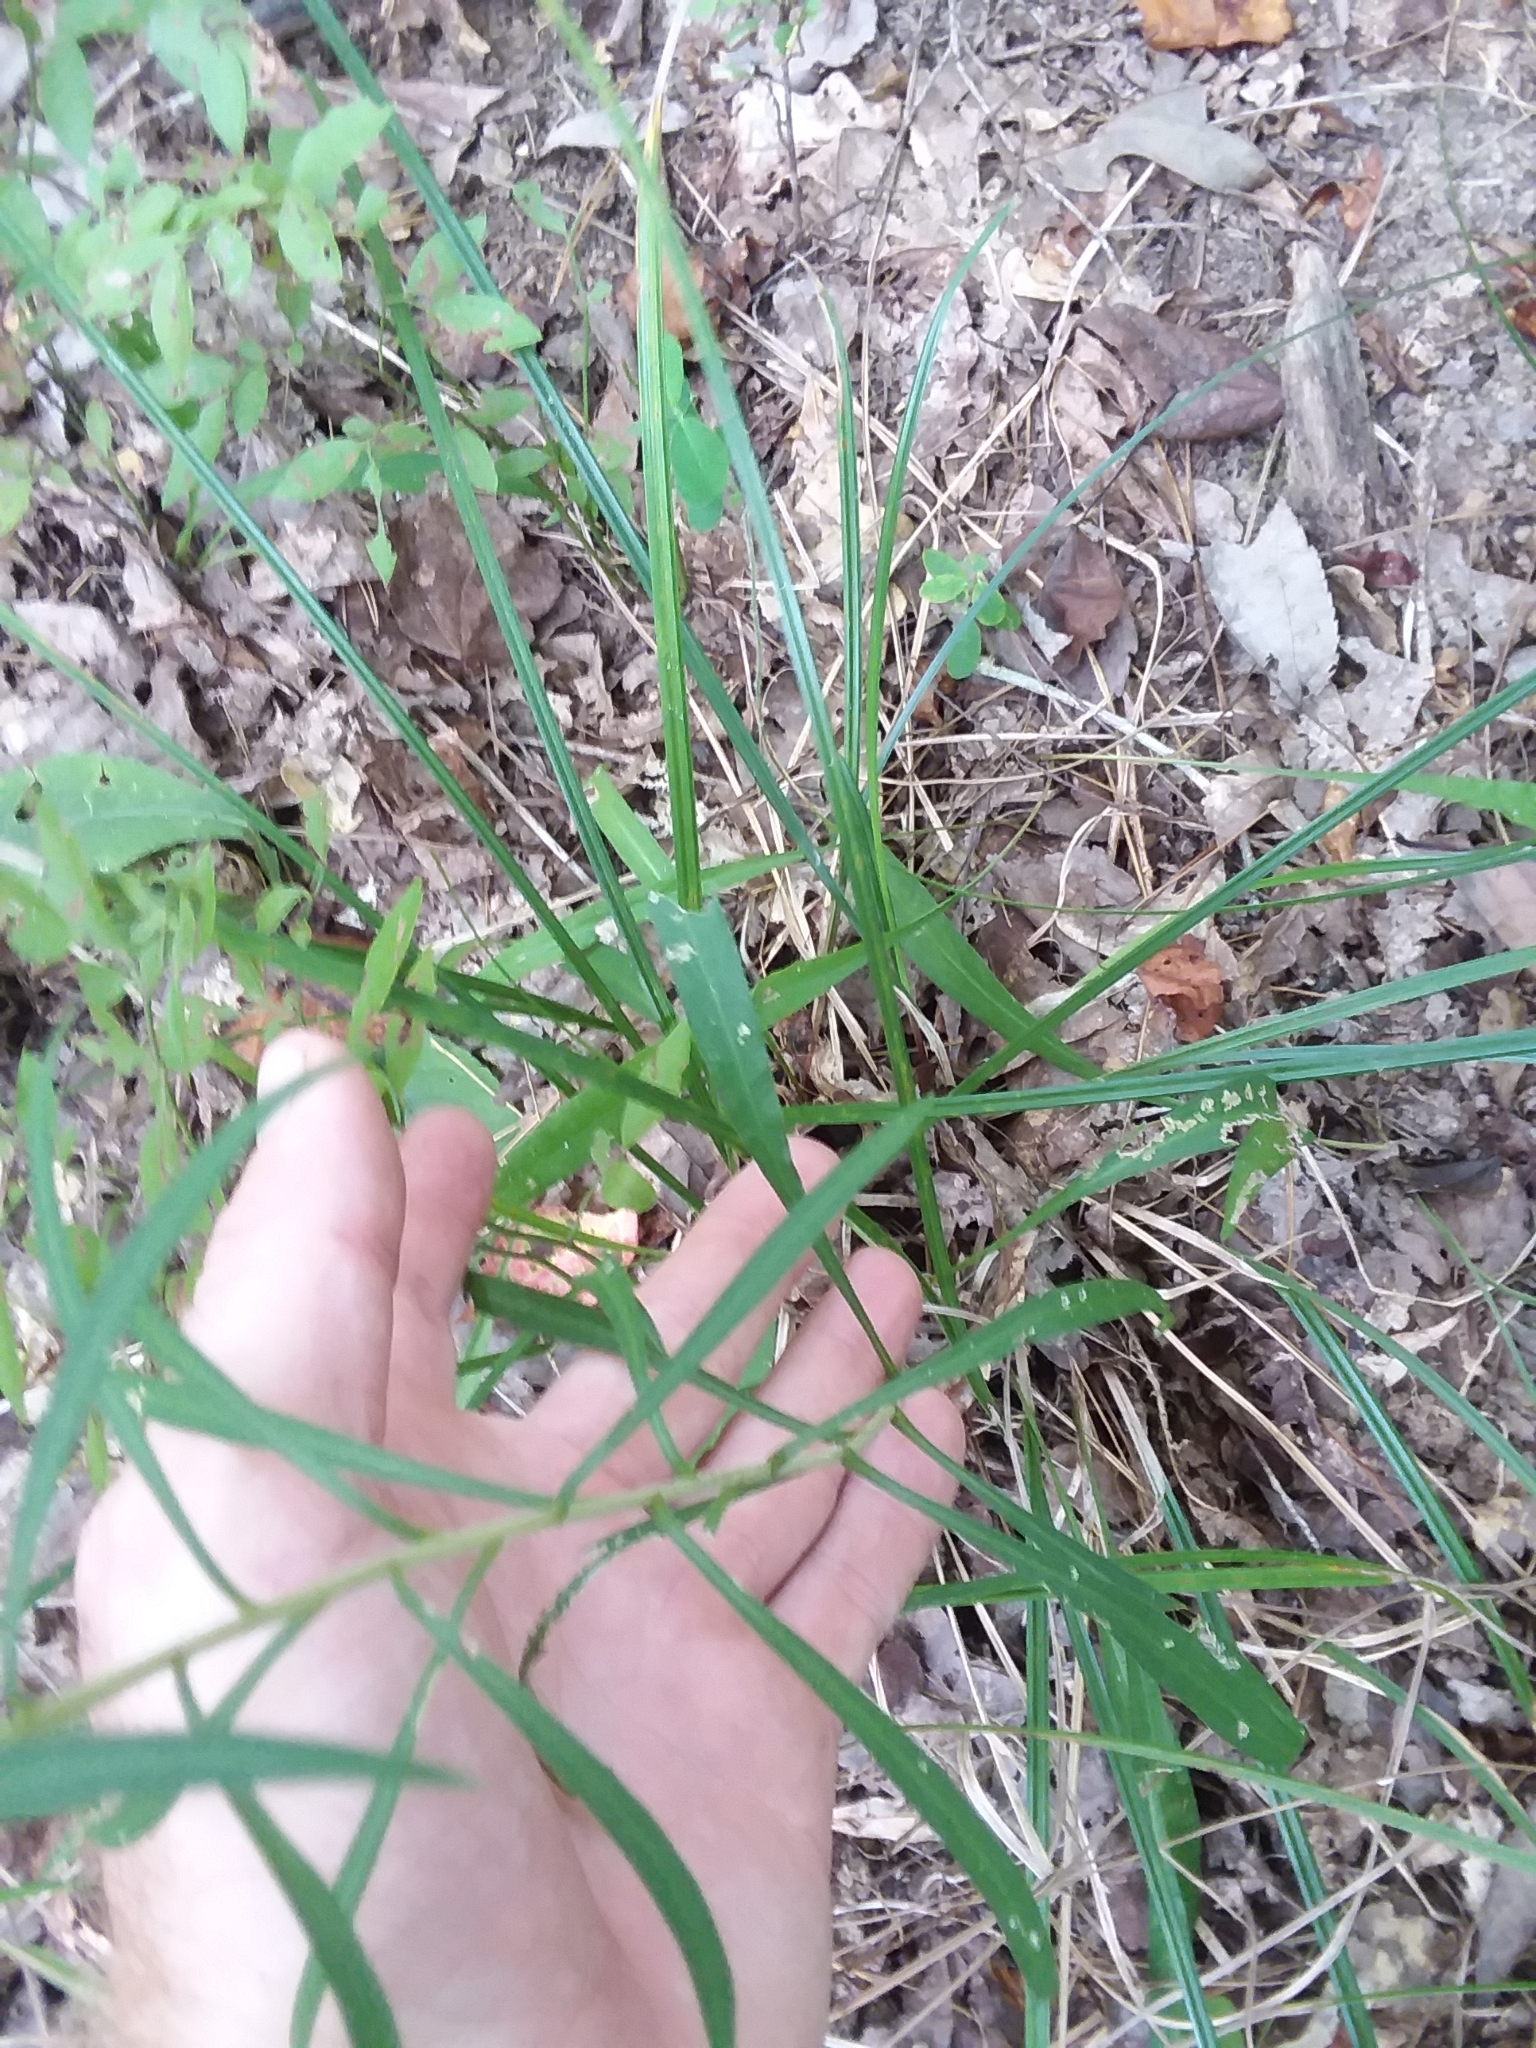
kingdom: Plantae
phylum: Tracheophyta
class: Magnoliopsida
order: Asterales
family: Asteraceae
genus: Liatris
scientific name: Liatris squarrulosa
